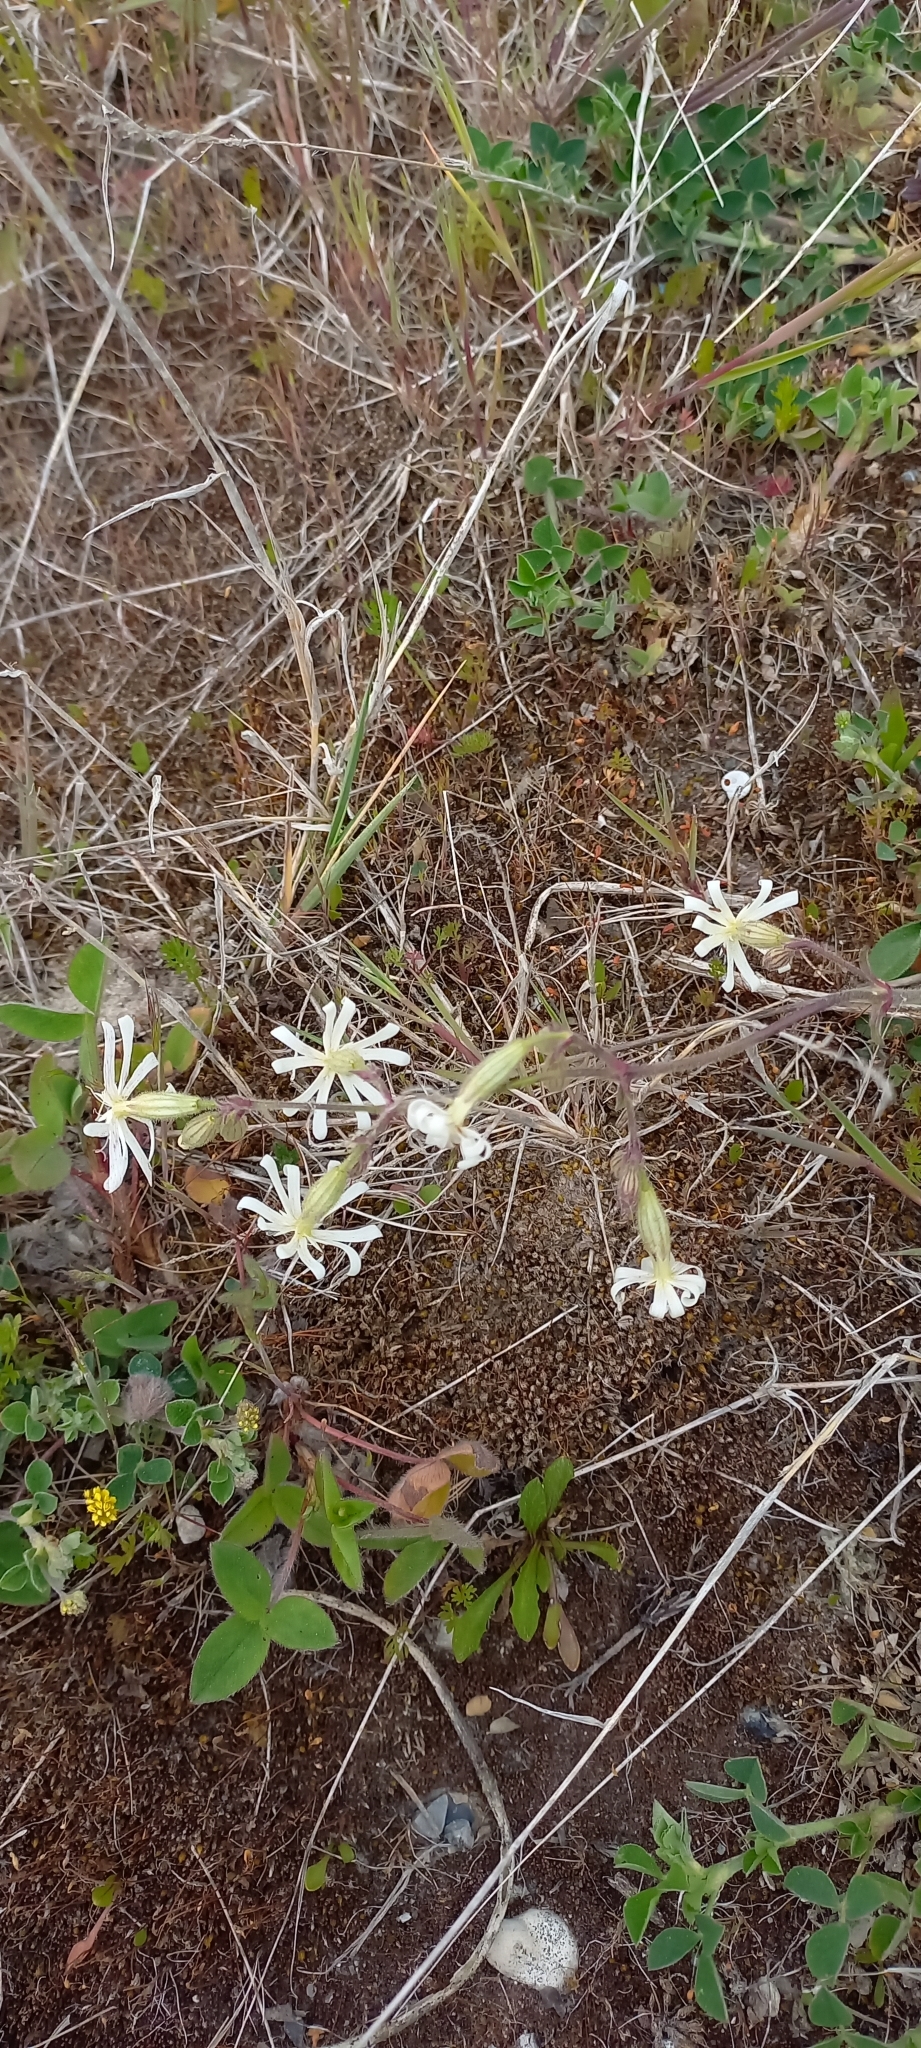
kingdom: Plantae
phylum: Tracheophyta
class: Magnoliopsida
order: Caryophyllales
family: Caryophyllaceae
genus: Silene
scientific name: Silene nutans
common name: Nottingham catchfly
